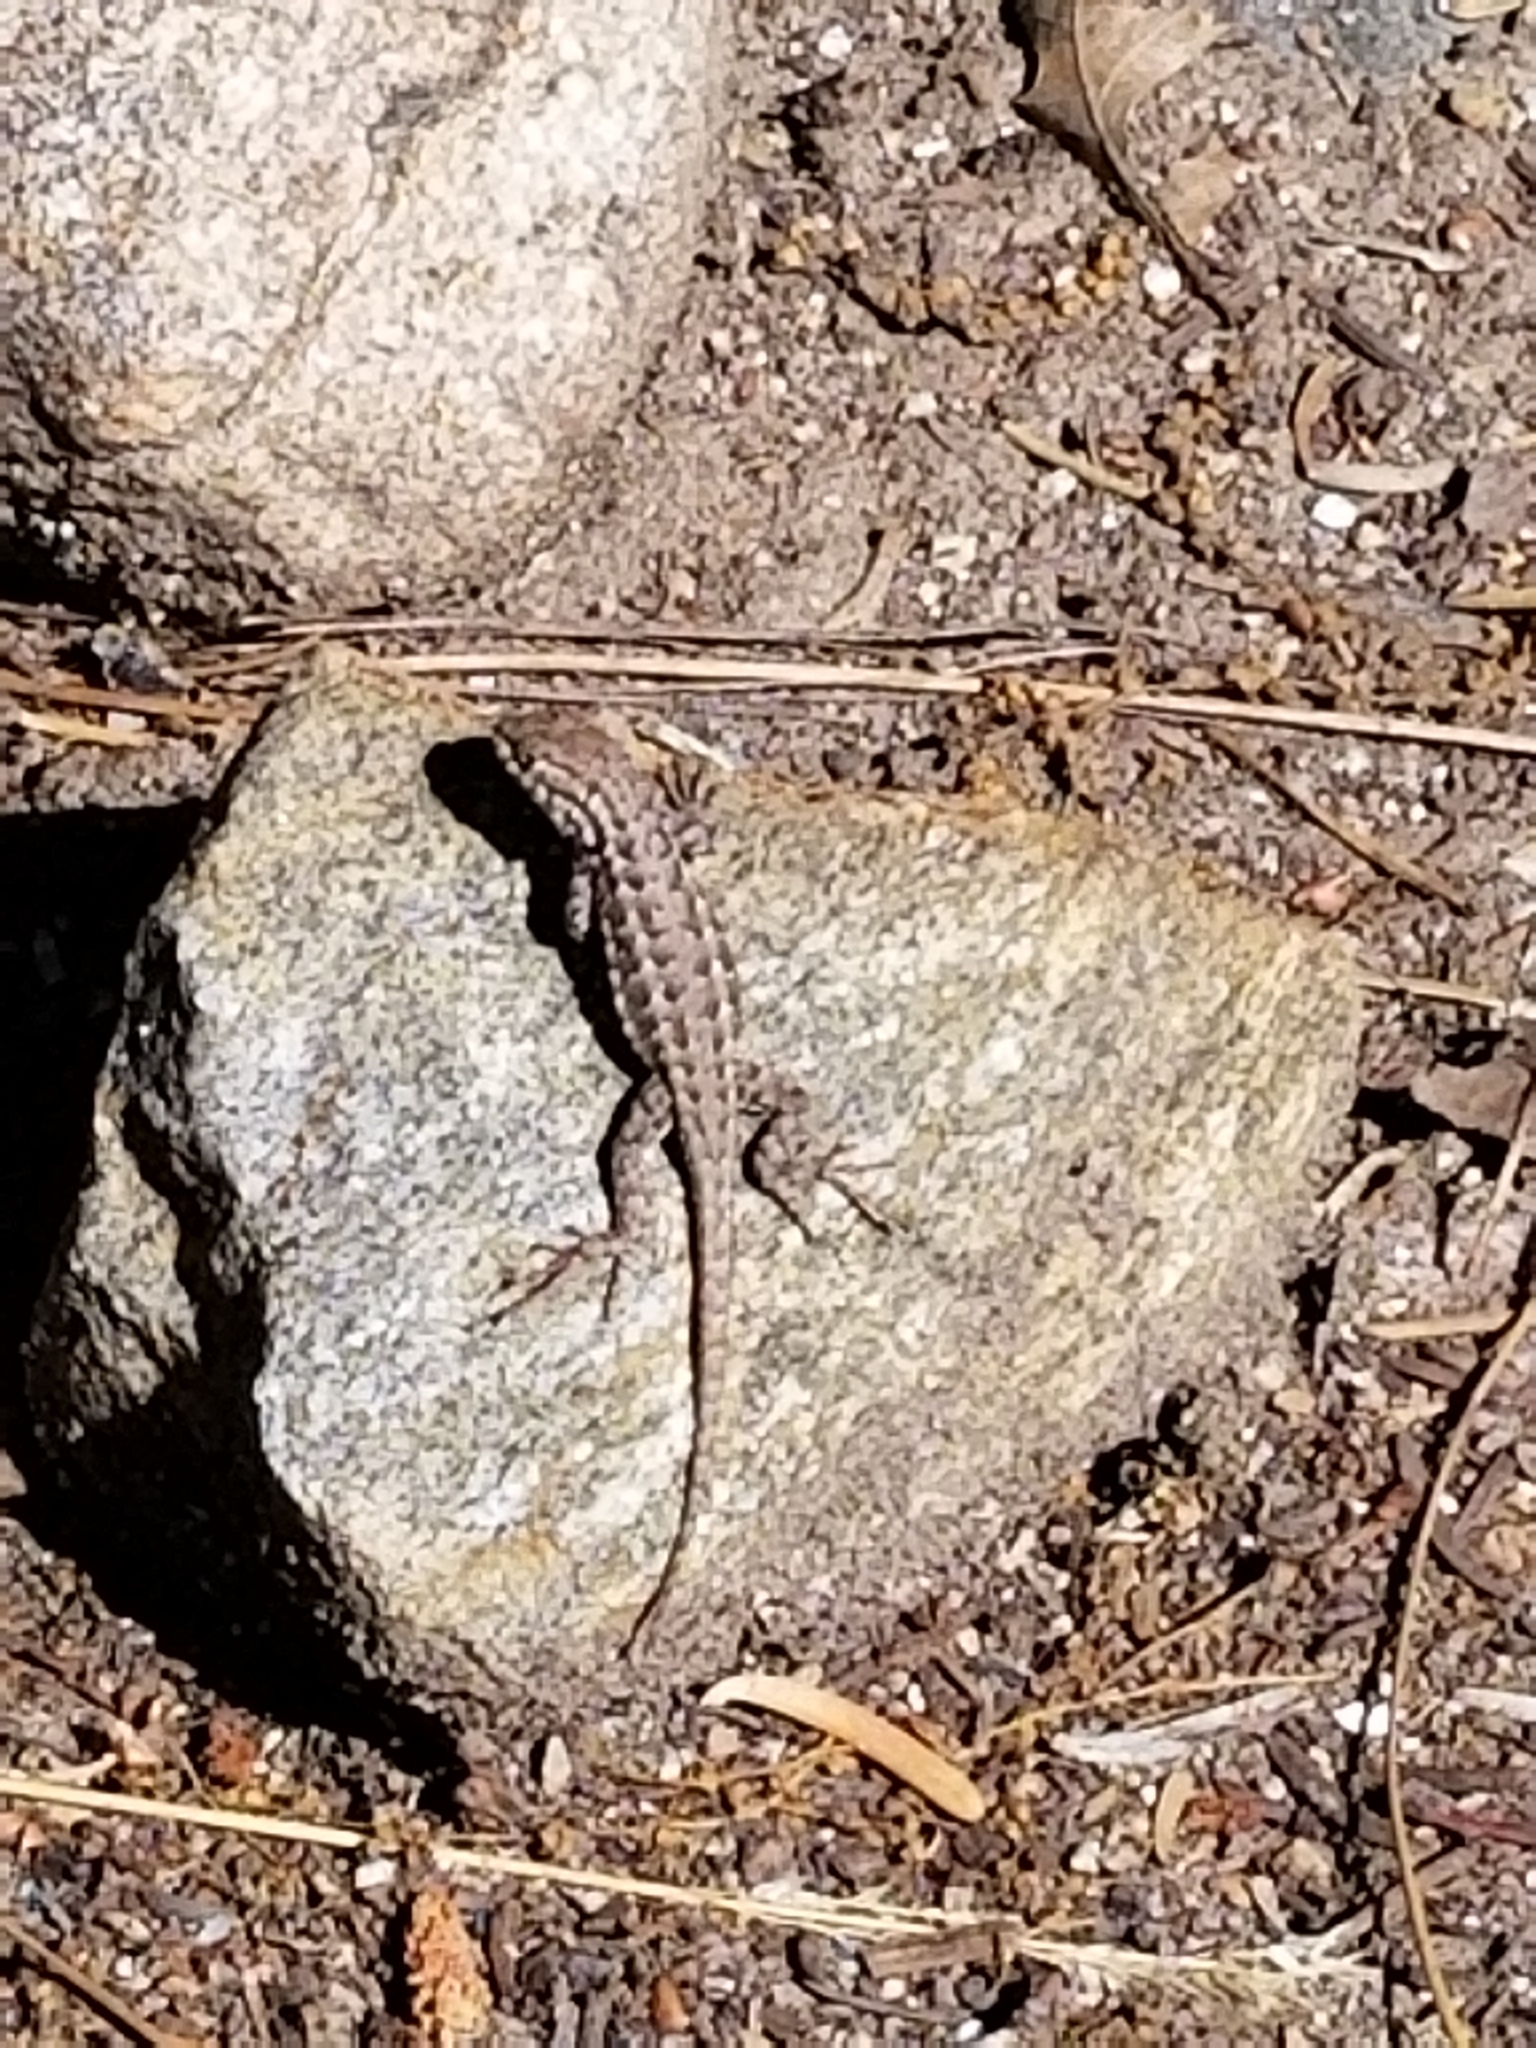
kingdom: Animalia
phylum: Chordata
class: Squamata
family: Phrynosomatidae
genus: Sceloporus
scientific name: Sceloporus graciosus
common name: Sagebrush lizard
